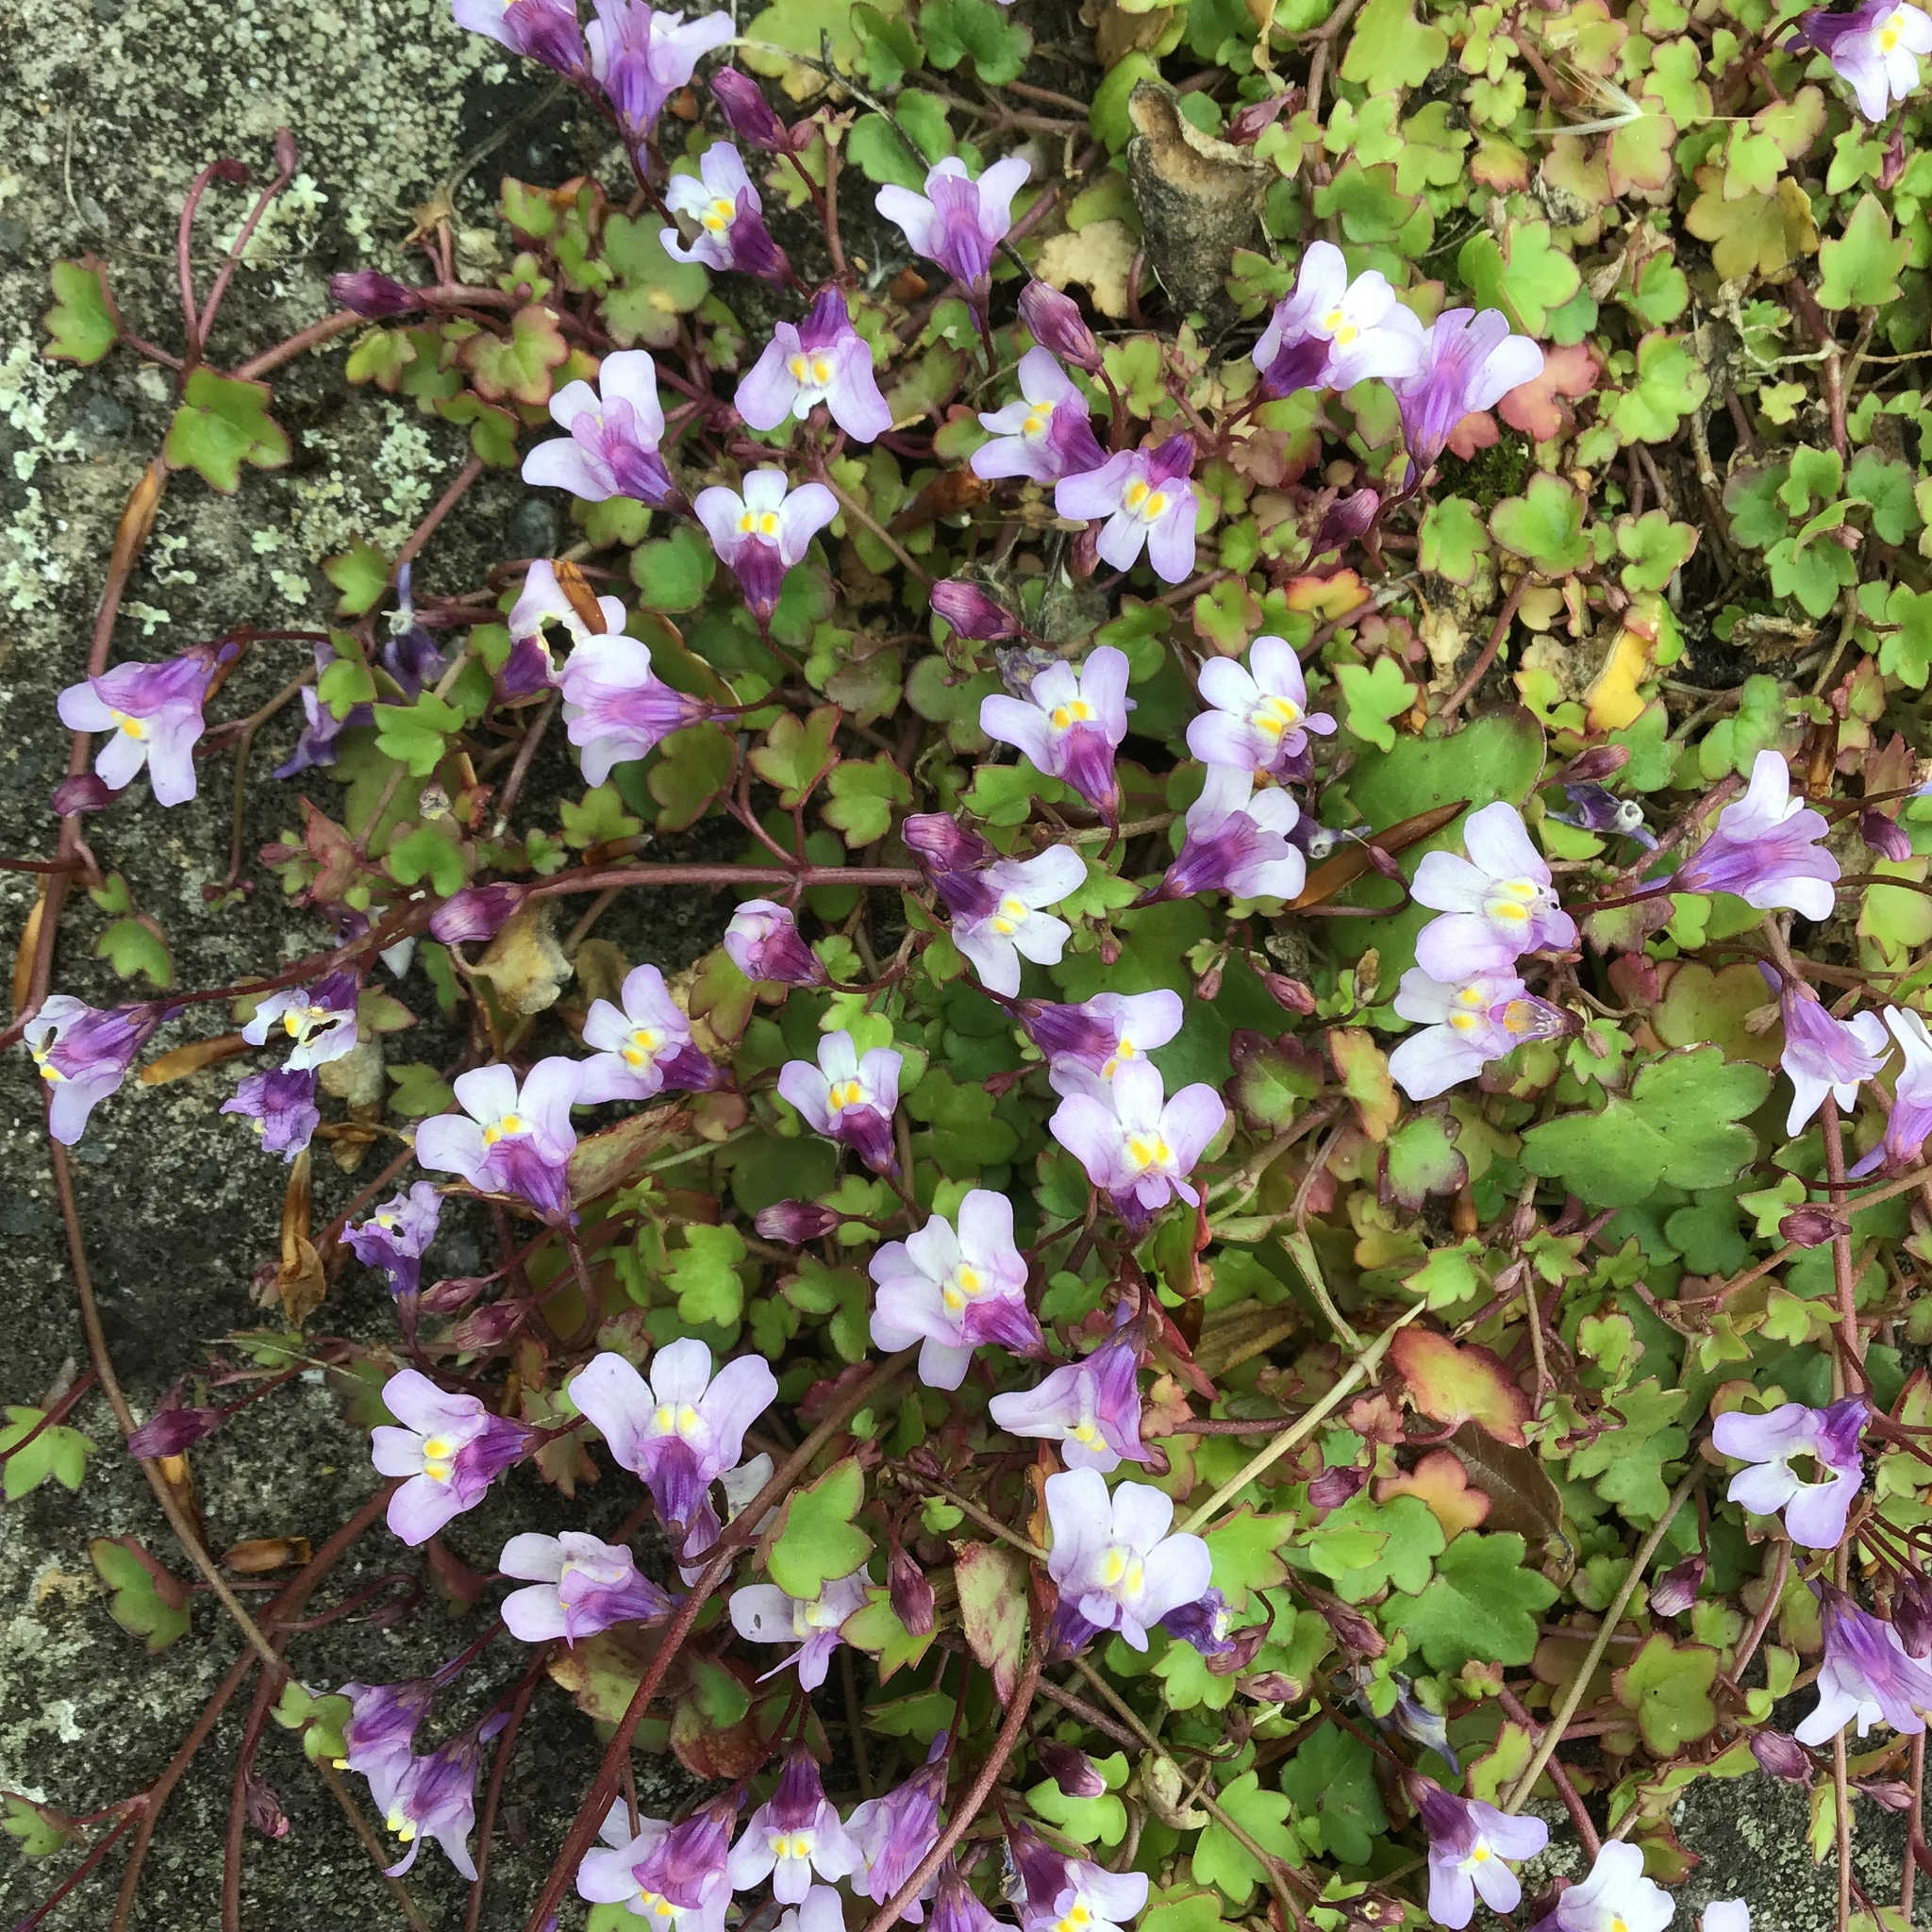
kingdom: Plantae
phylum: Tracheophyta
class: Magnoliopsida
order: Lamiales
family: Plantaginaceae
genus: Cymbalaria
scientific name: Cymbalaria muralis
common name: Ivy-leaved toadflax
